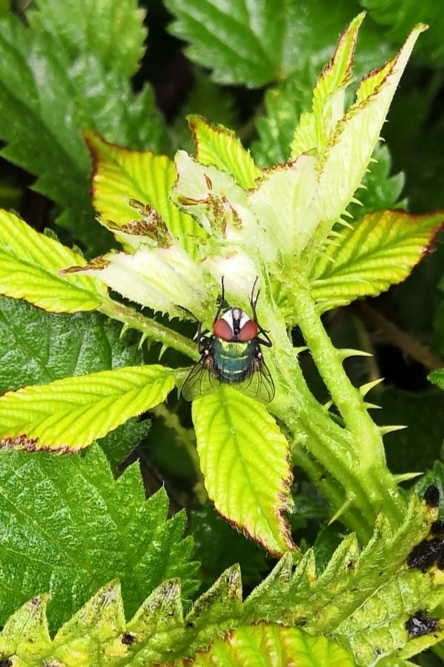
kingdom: Animalia
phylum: Arthropoda
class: Insecta
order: Diptera
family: Calliphoridae
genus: Lucilia
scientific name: Lucilia
